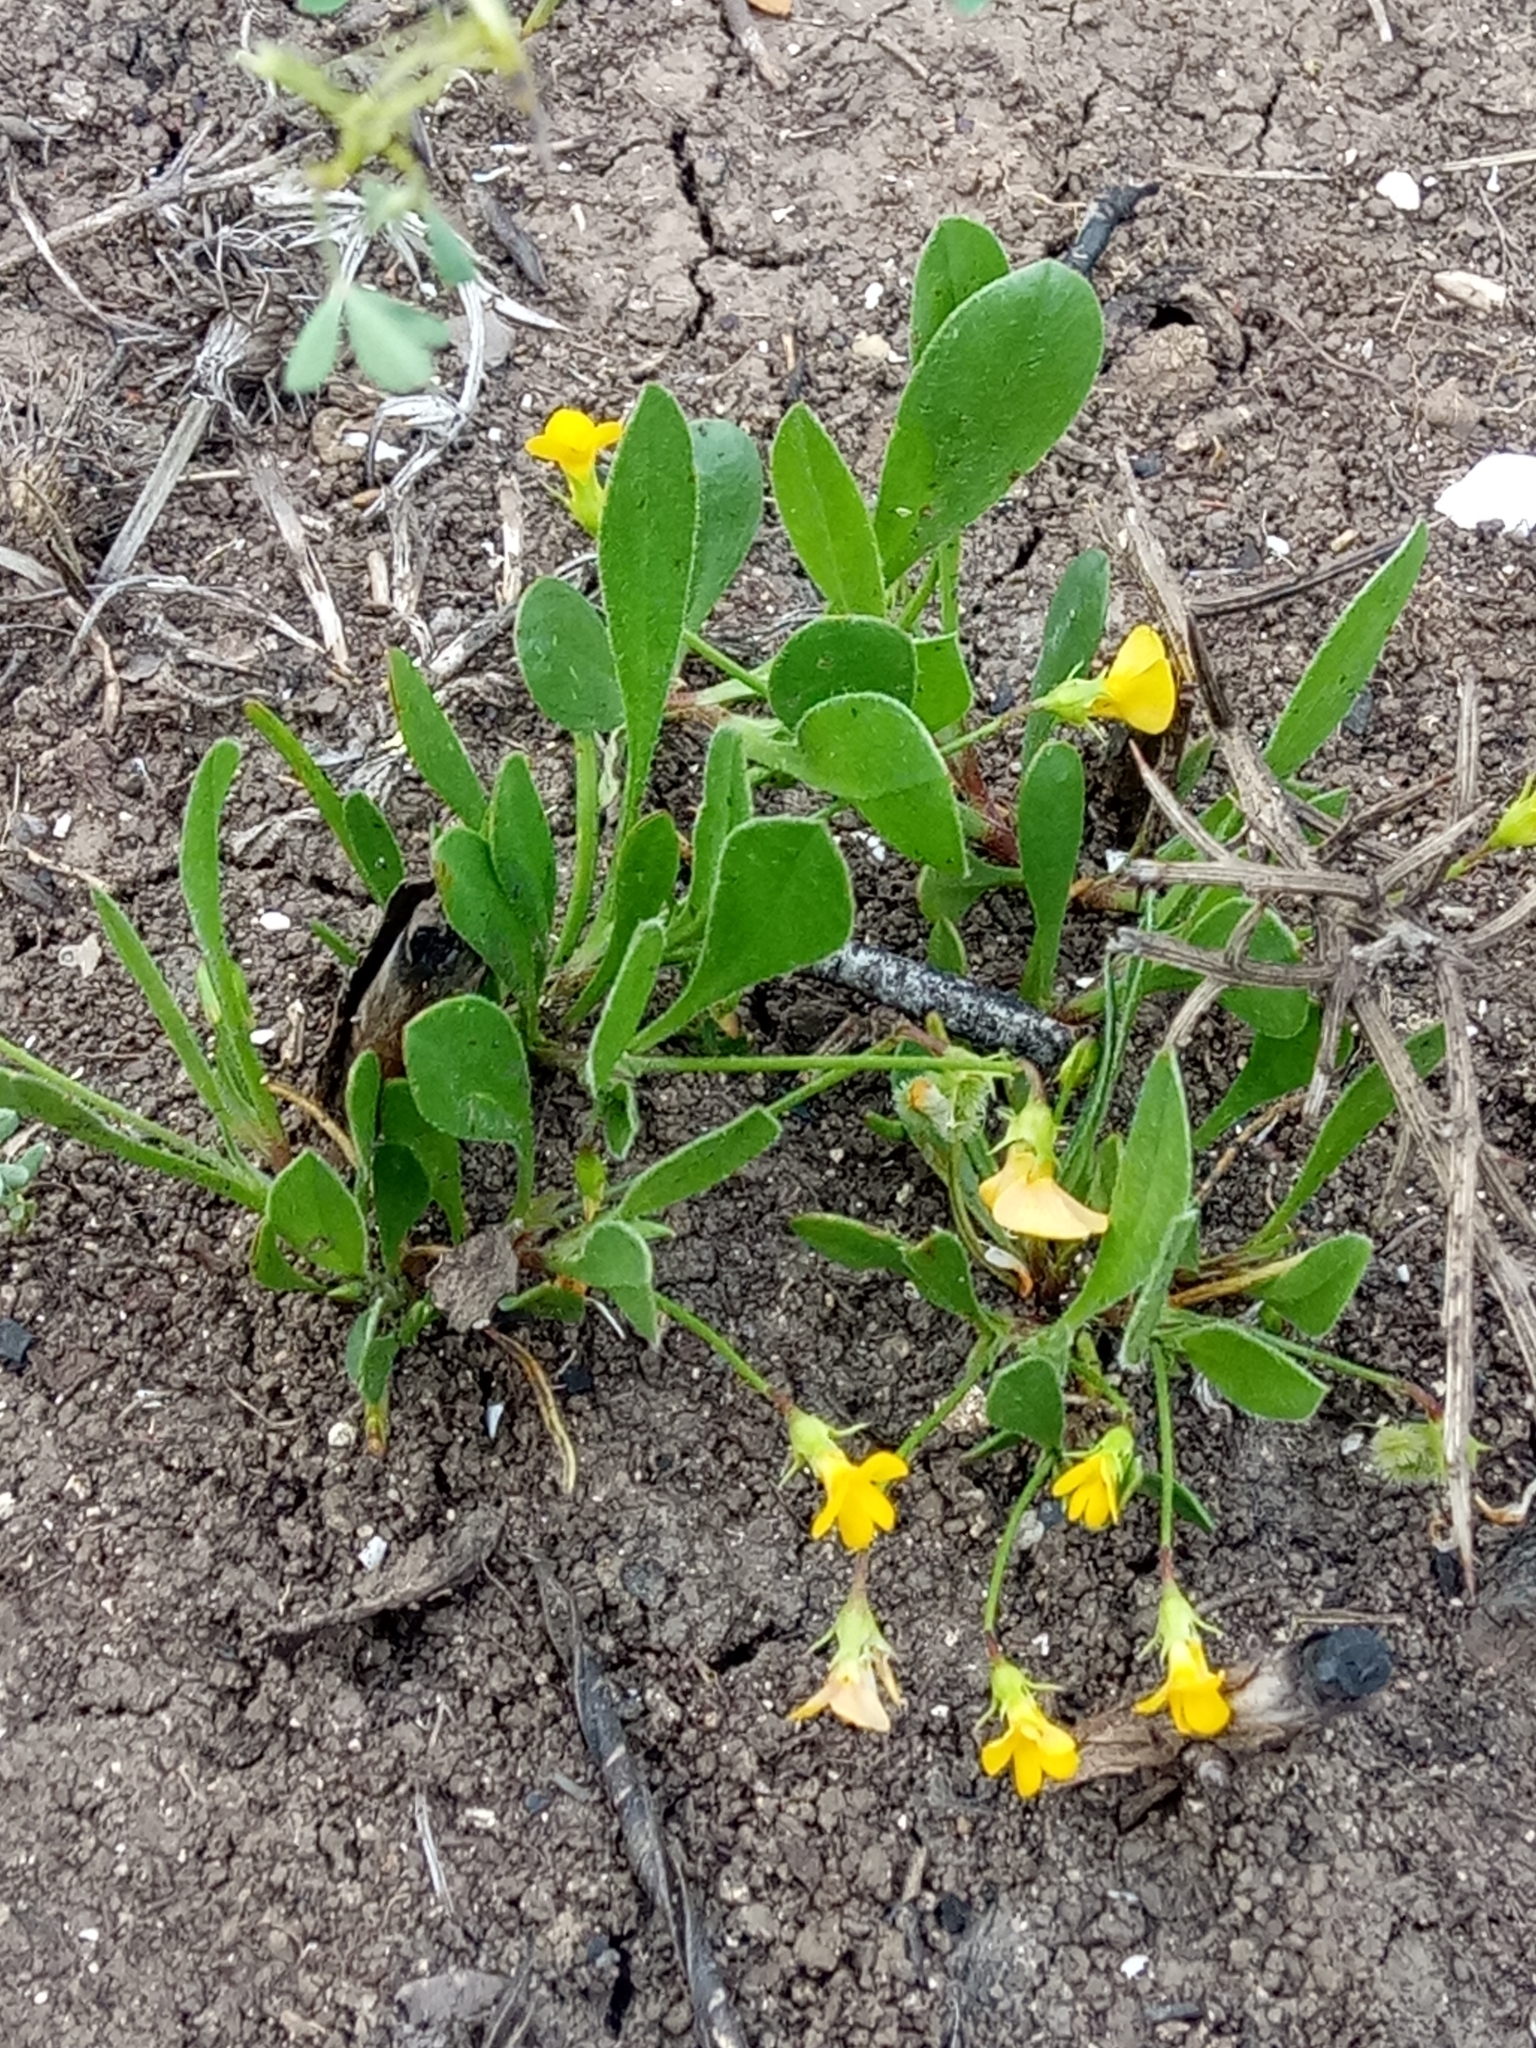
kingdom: Plantae
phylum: Tracheophyta
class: Magnoliopsida
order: Fabales
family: Fabaceae
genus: Scorpiurus
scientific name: Scorpiurus muricatus
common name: Caterpillar-plant
